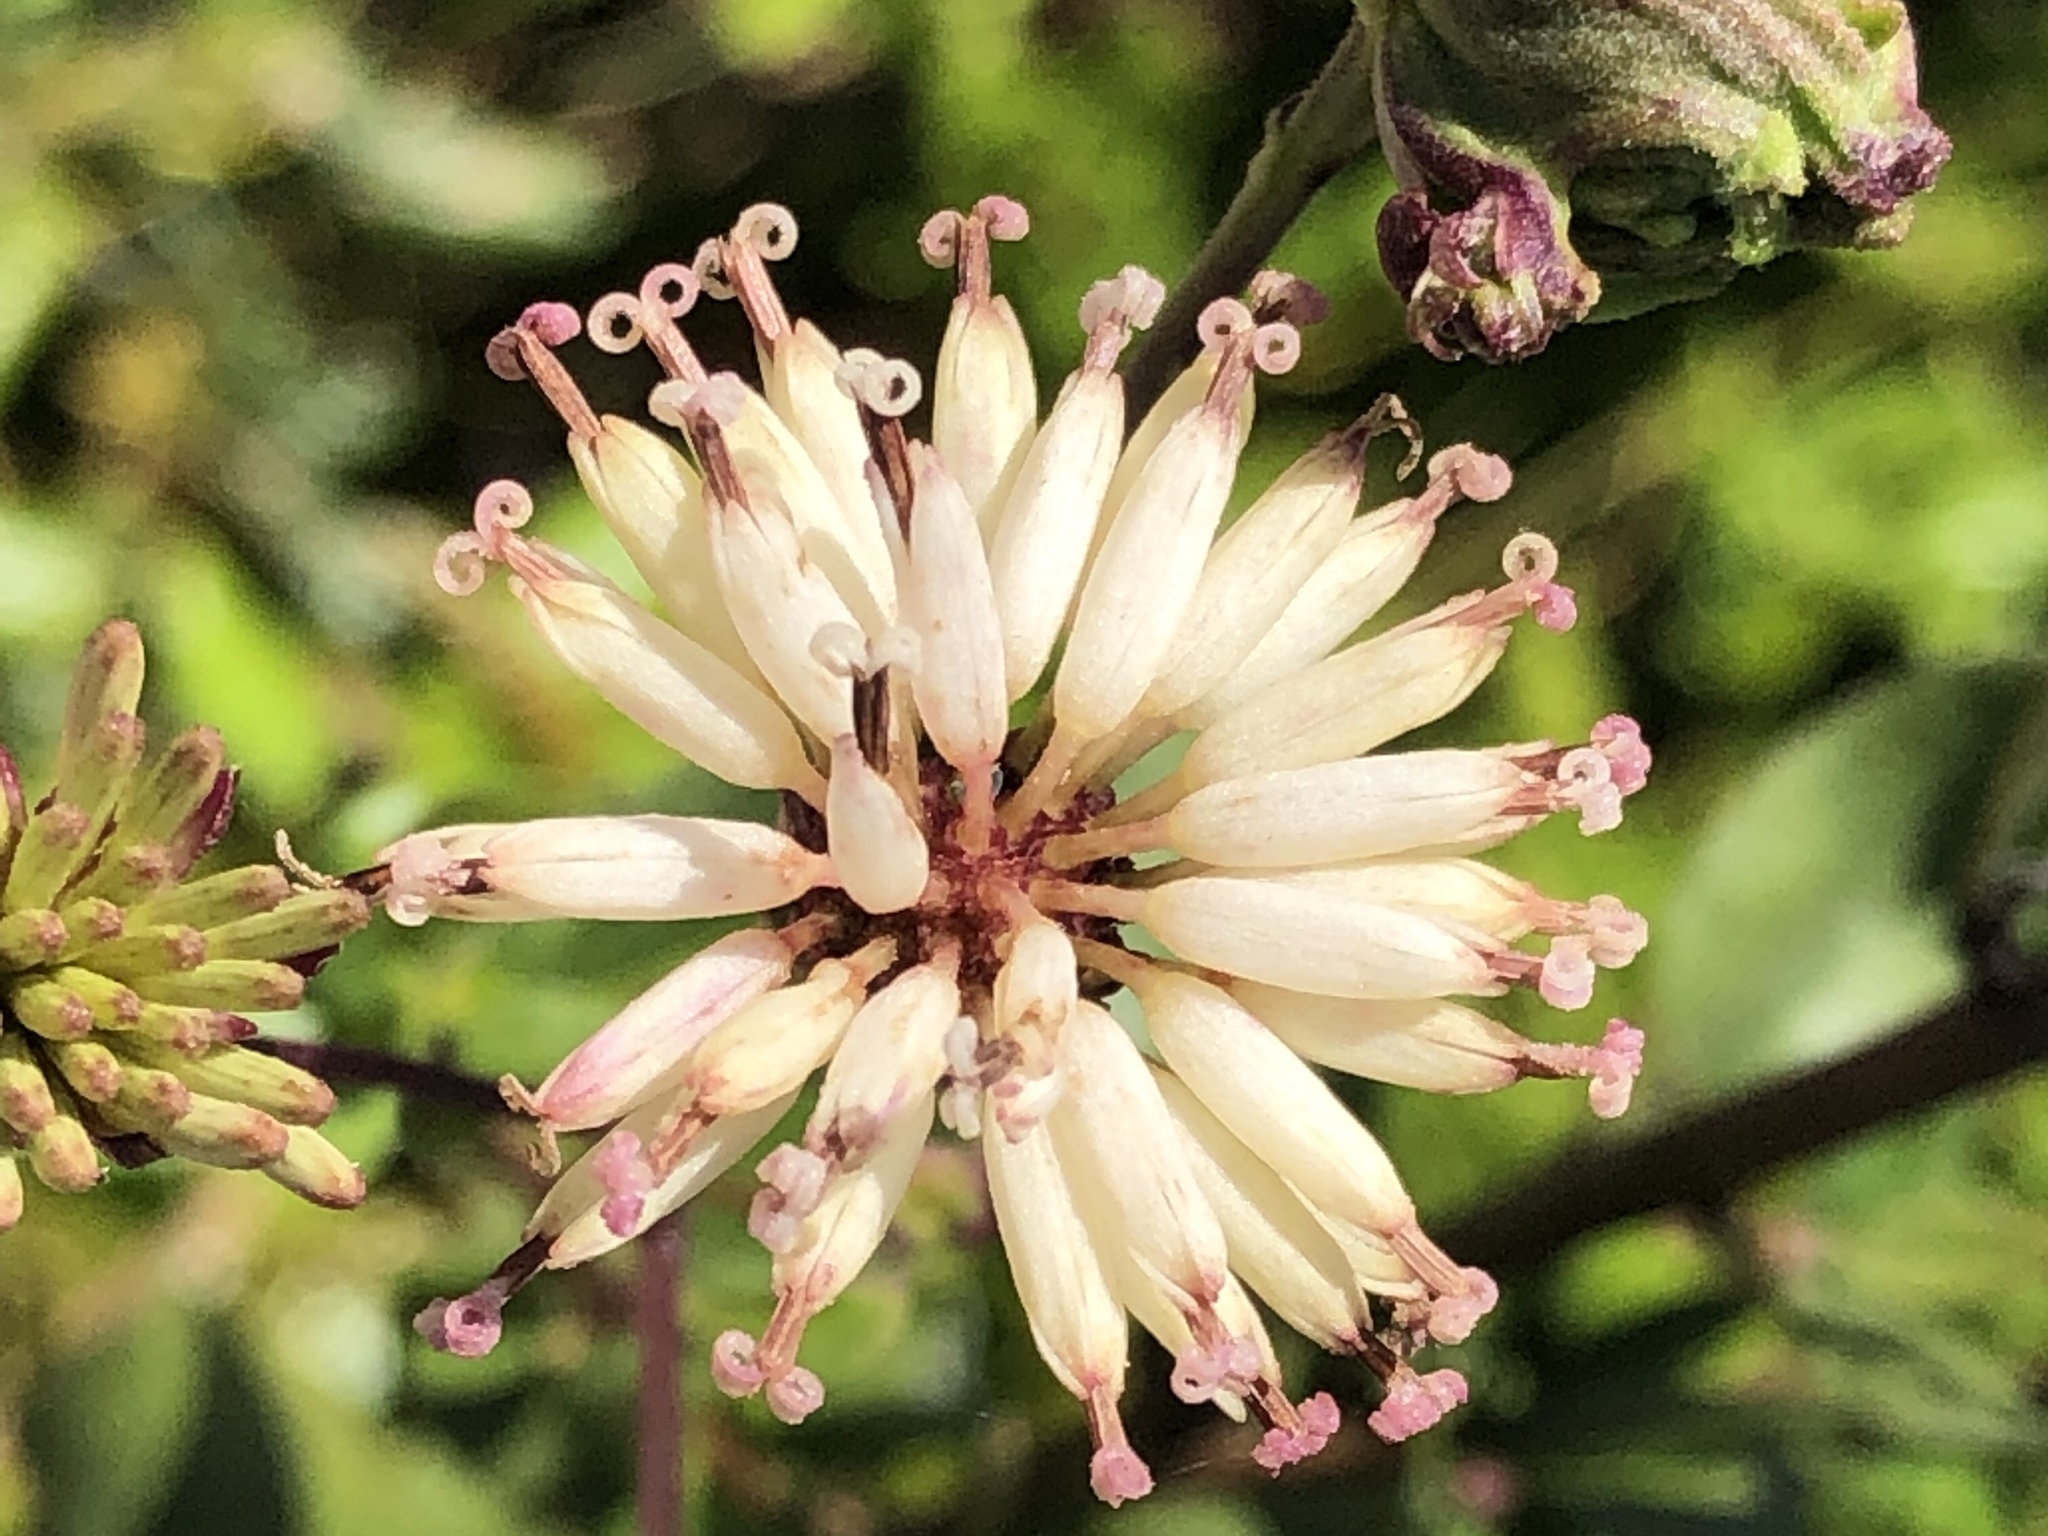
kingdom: Plantae
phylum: Tracheophyta
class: Magnoliopsida
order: Asterales
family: Asteraceae
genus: Palafoxia
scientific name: Palafoxia feayi
